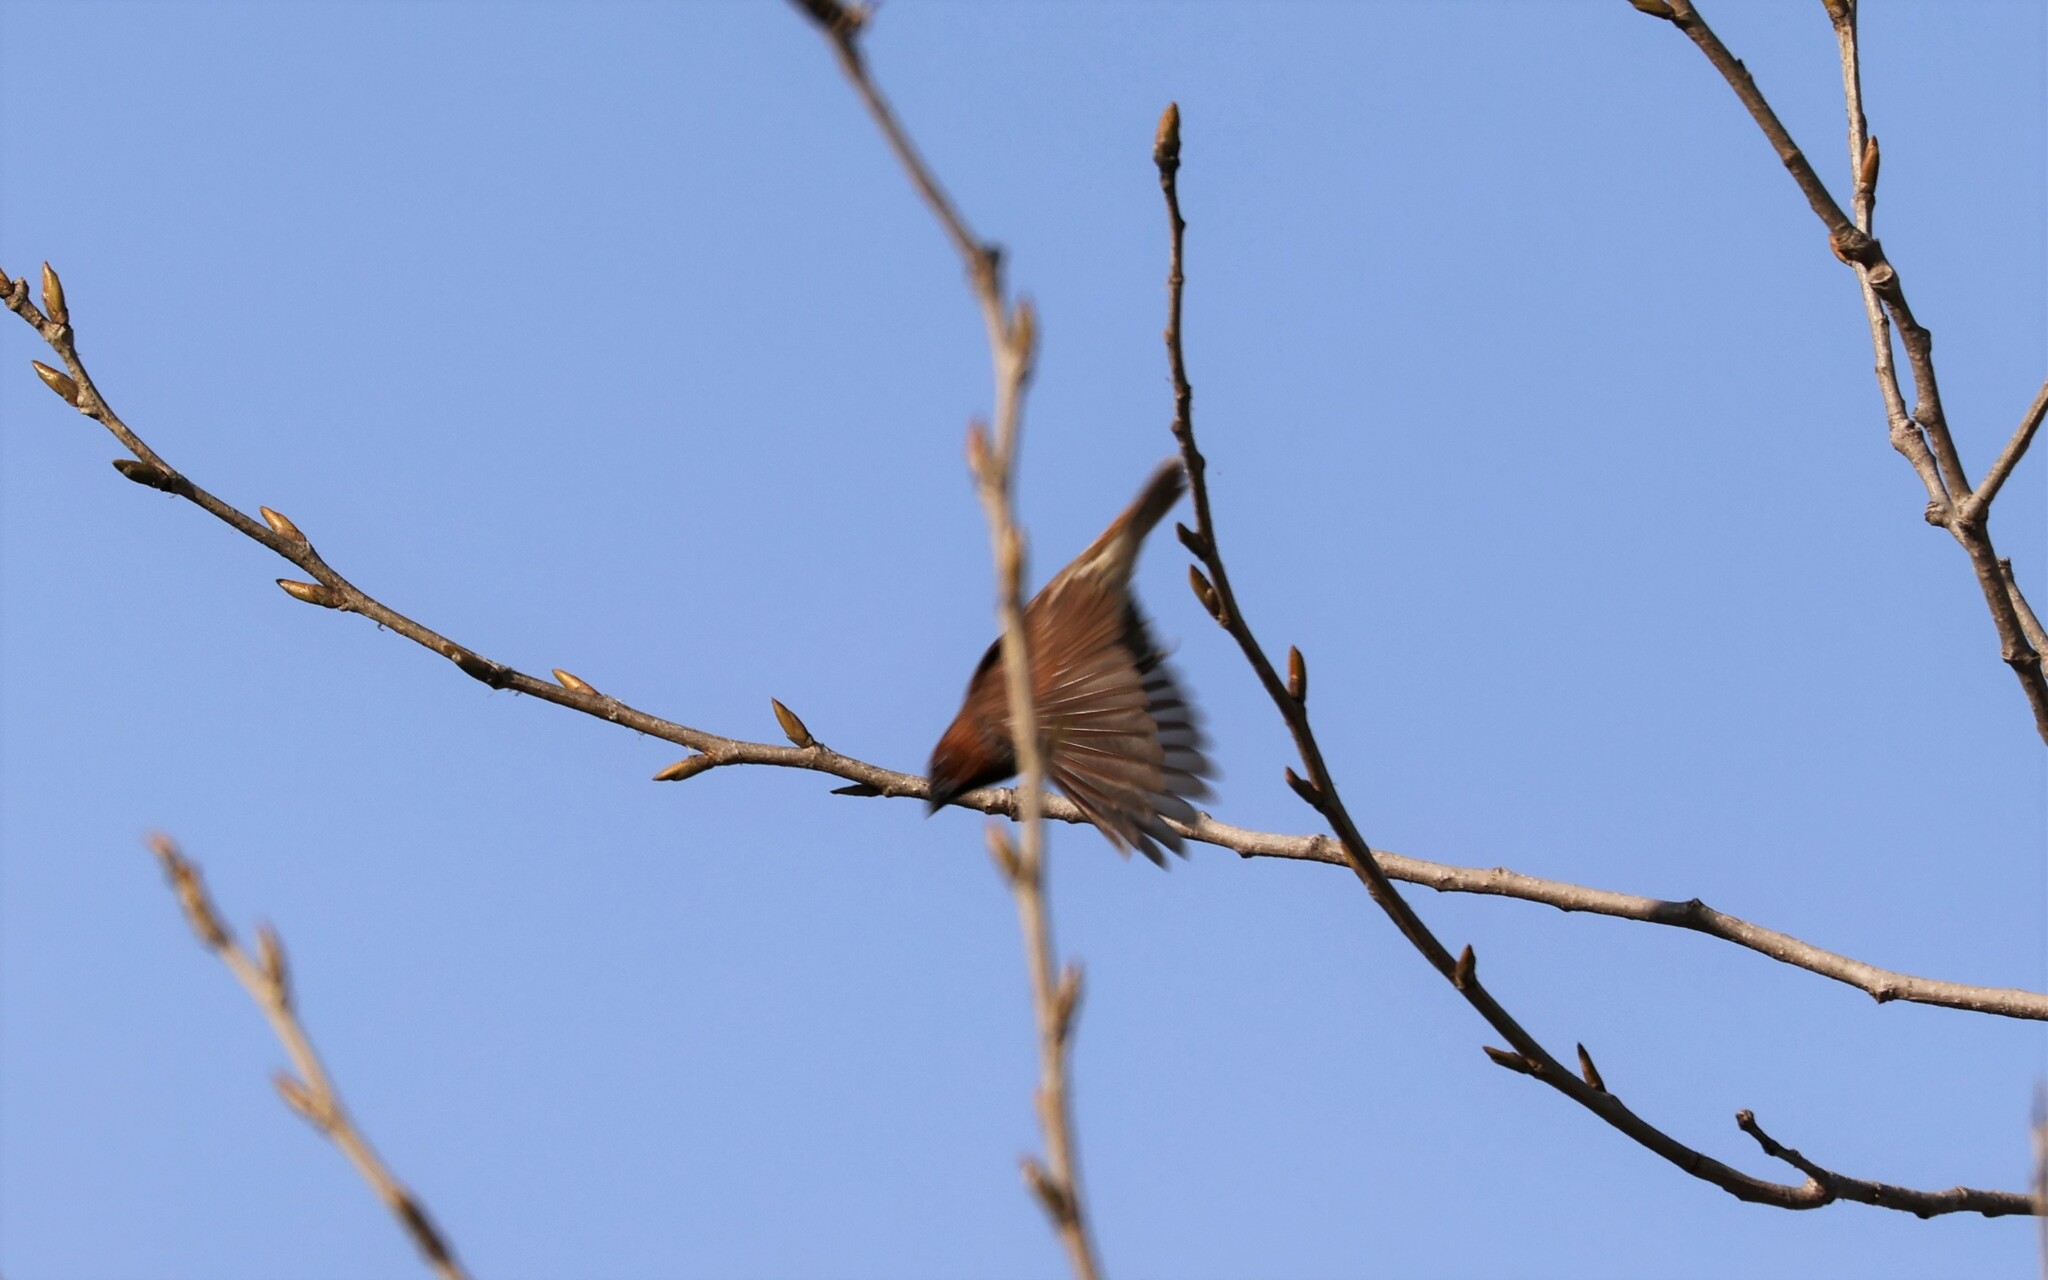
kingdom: Animalia
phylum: Chordata
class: Aves
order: Passeriformes
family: Estrildidae
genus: Lonchura
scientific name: Lonchura punctulata
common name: Scaly-breasted munia
